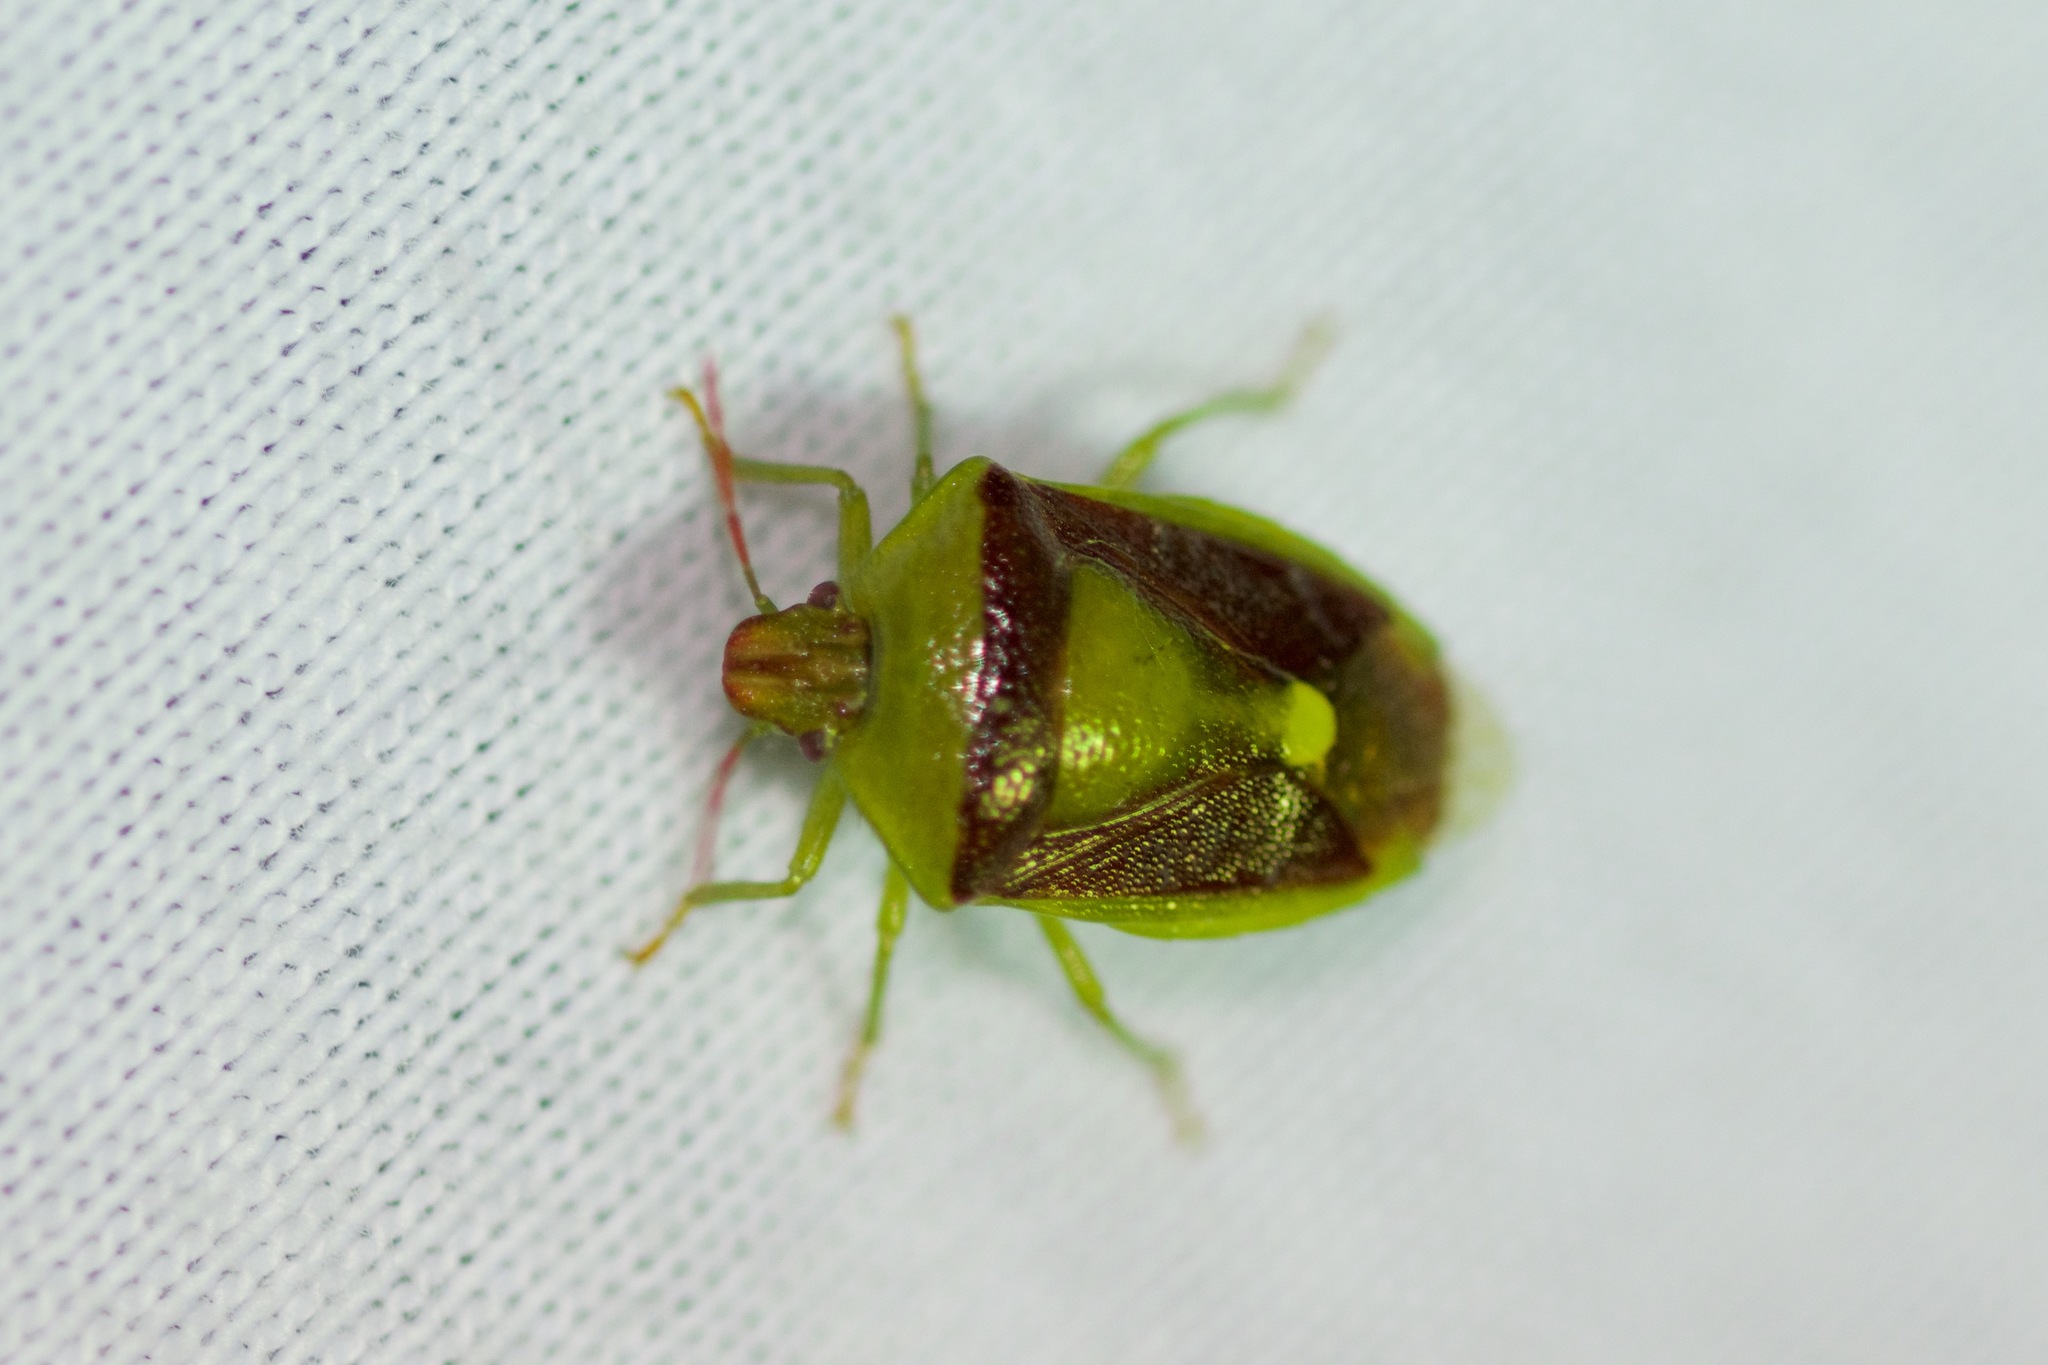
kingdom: Animalia
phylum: Arthropoda
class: Insecta
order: Hemiptera
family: Pentatomidae
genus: Banasa
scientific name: Banasa dimidiata
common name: Green burgundy stink bug
